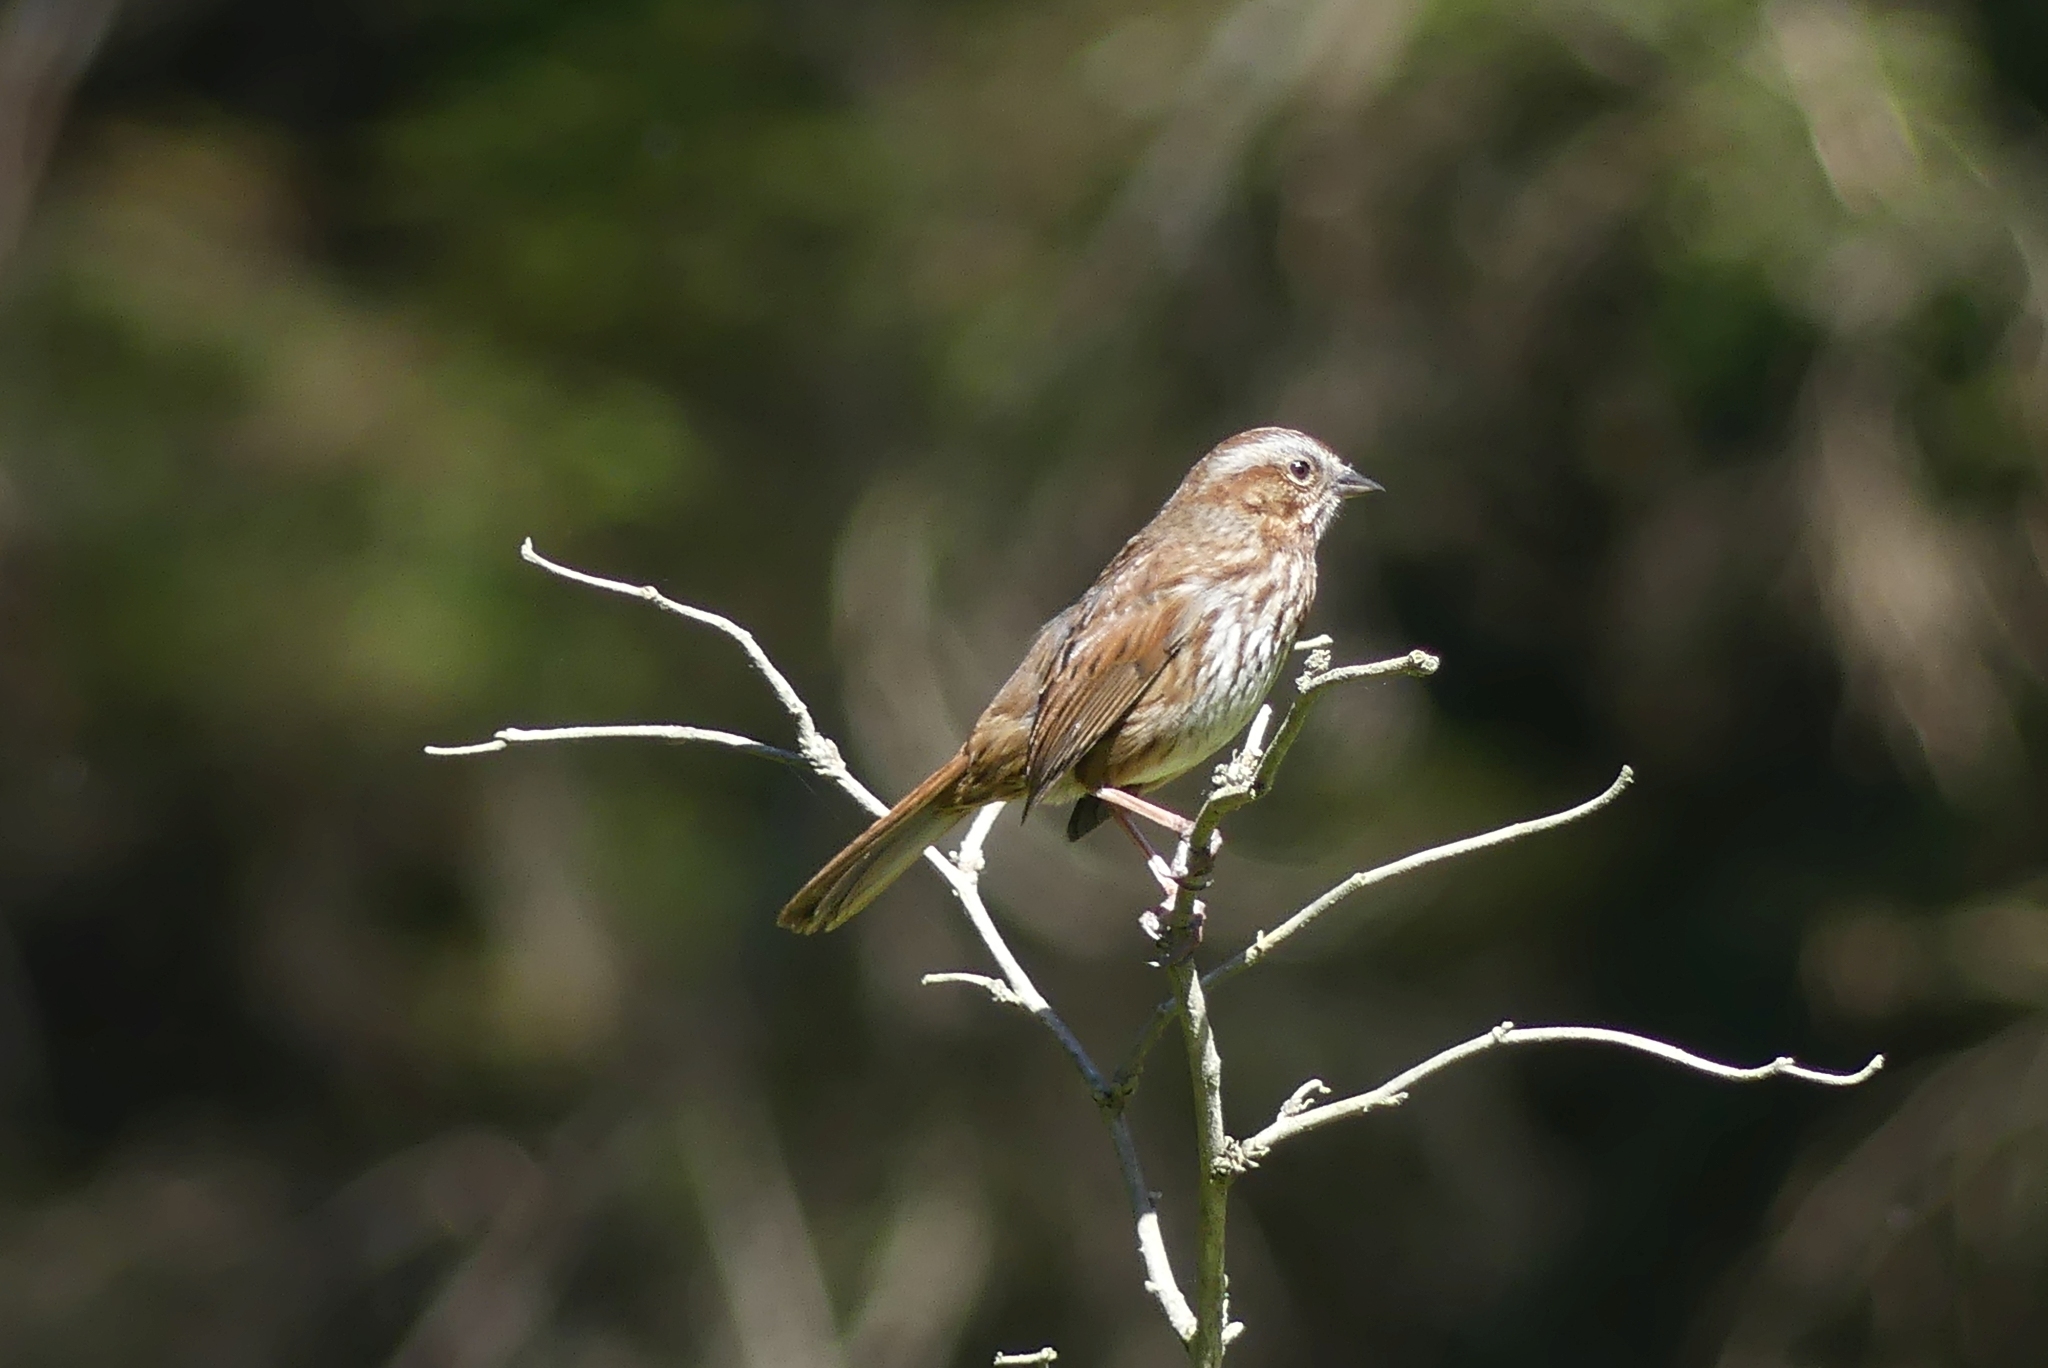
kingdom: Animalia
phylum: Chordata
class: Aves
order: Passeriformes
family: Passerellidae
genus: Melospiza
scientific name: Melospiza melodia
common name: Song sparrow
